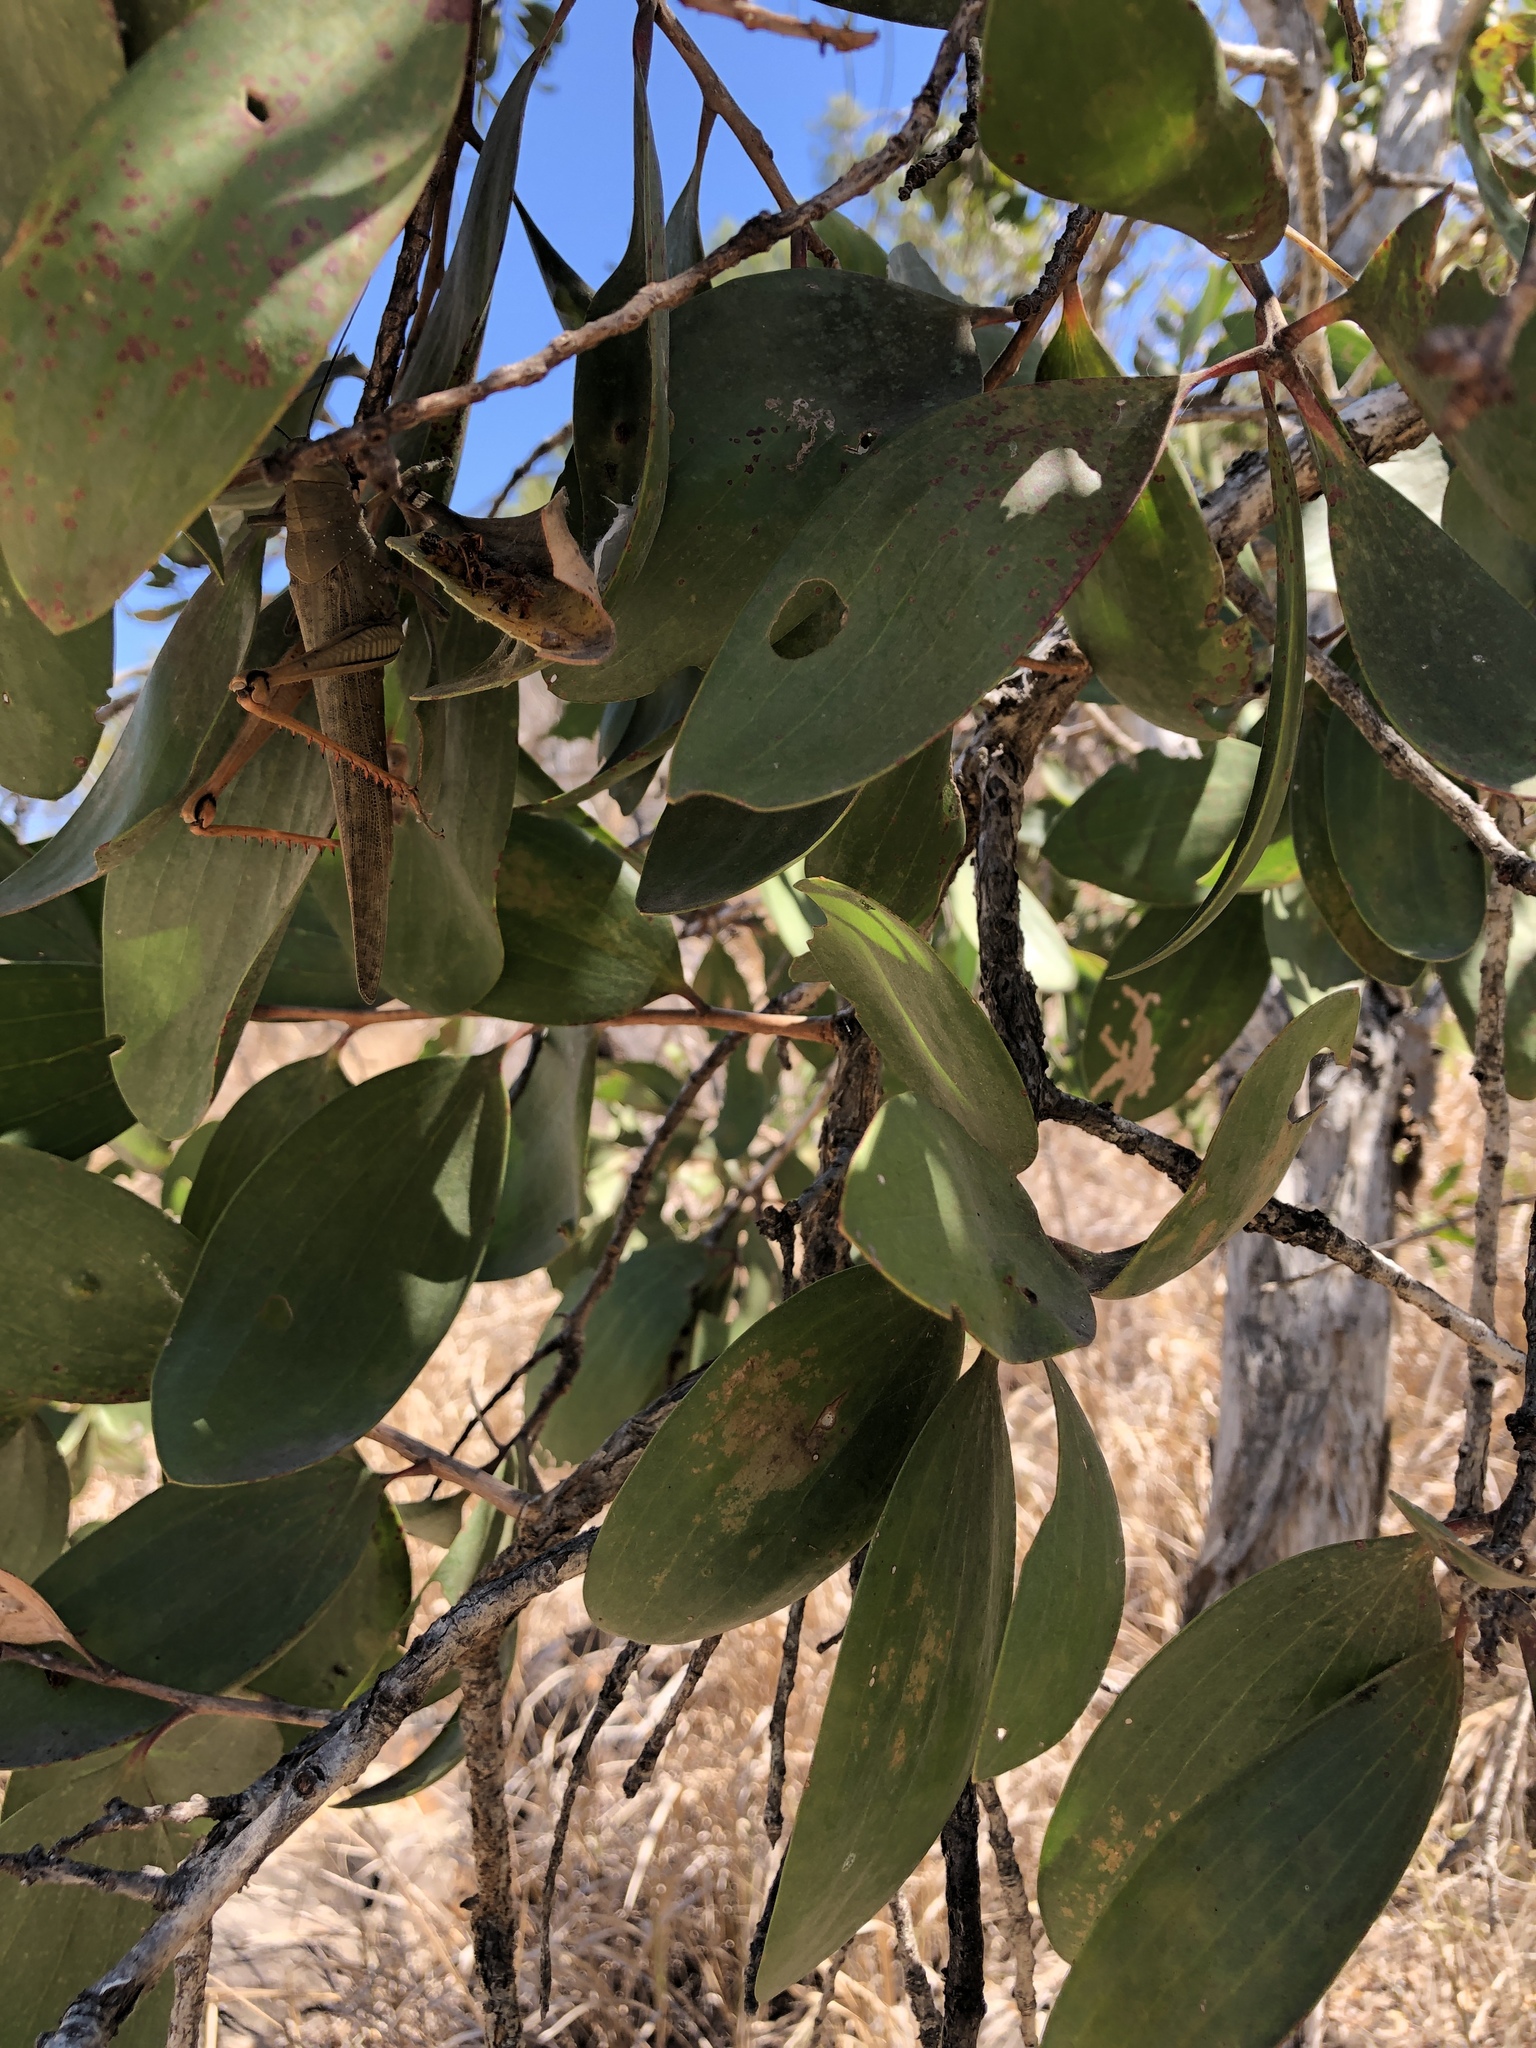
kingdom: Animalia
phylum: Arthropoda
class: Insecta
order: Orthoptera
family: Acrididae
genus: Valanga
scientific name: Valanga irregularis
